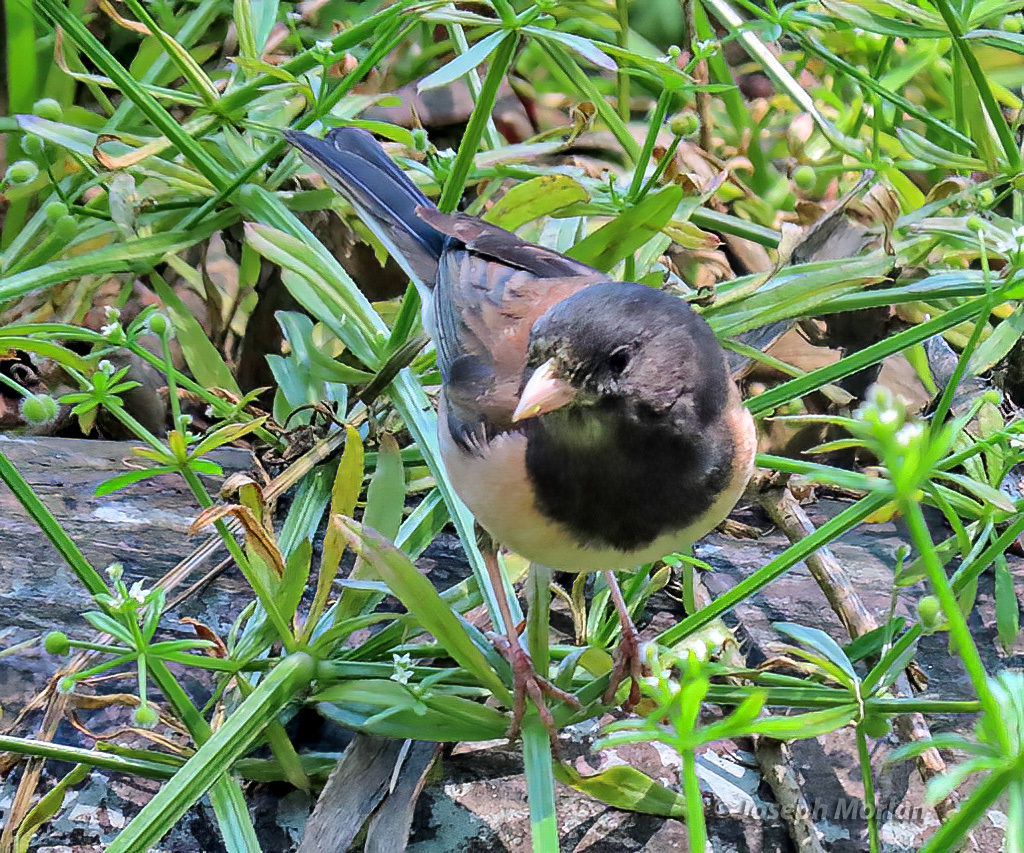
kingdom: Animalia
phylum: Chordata
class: Aves
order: Passeriformes
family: Passerellidae
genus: Junco
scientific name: Junco hyemalis
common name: Dark-eyed junco
